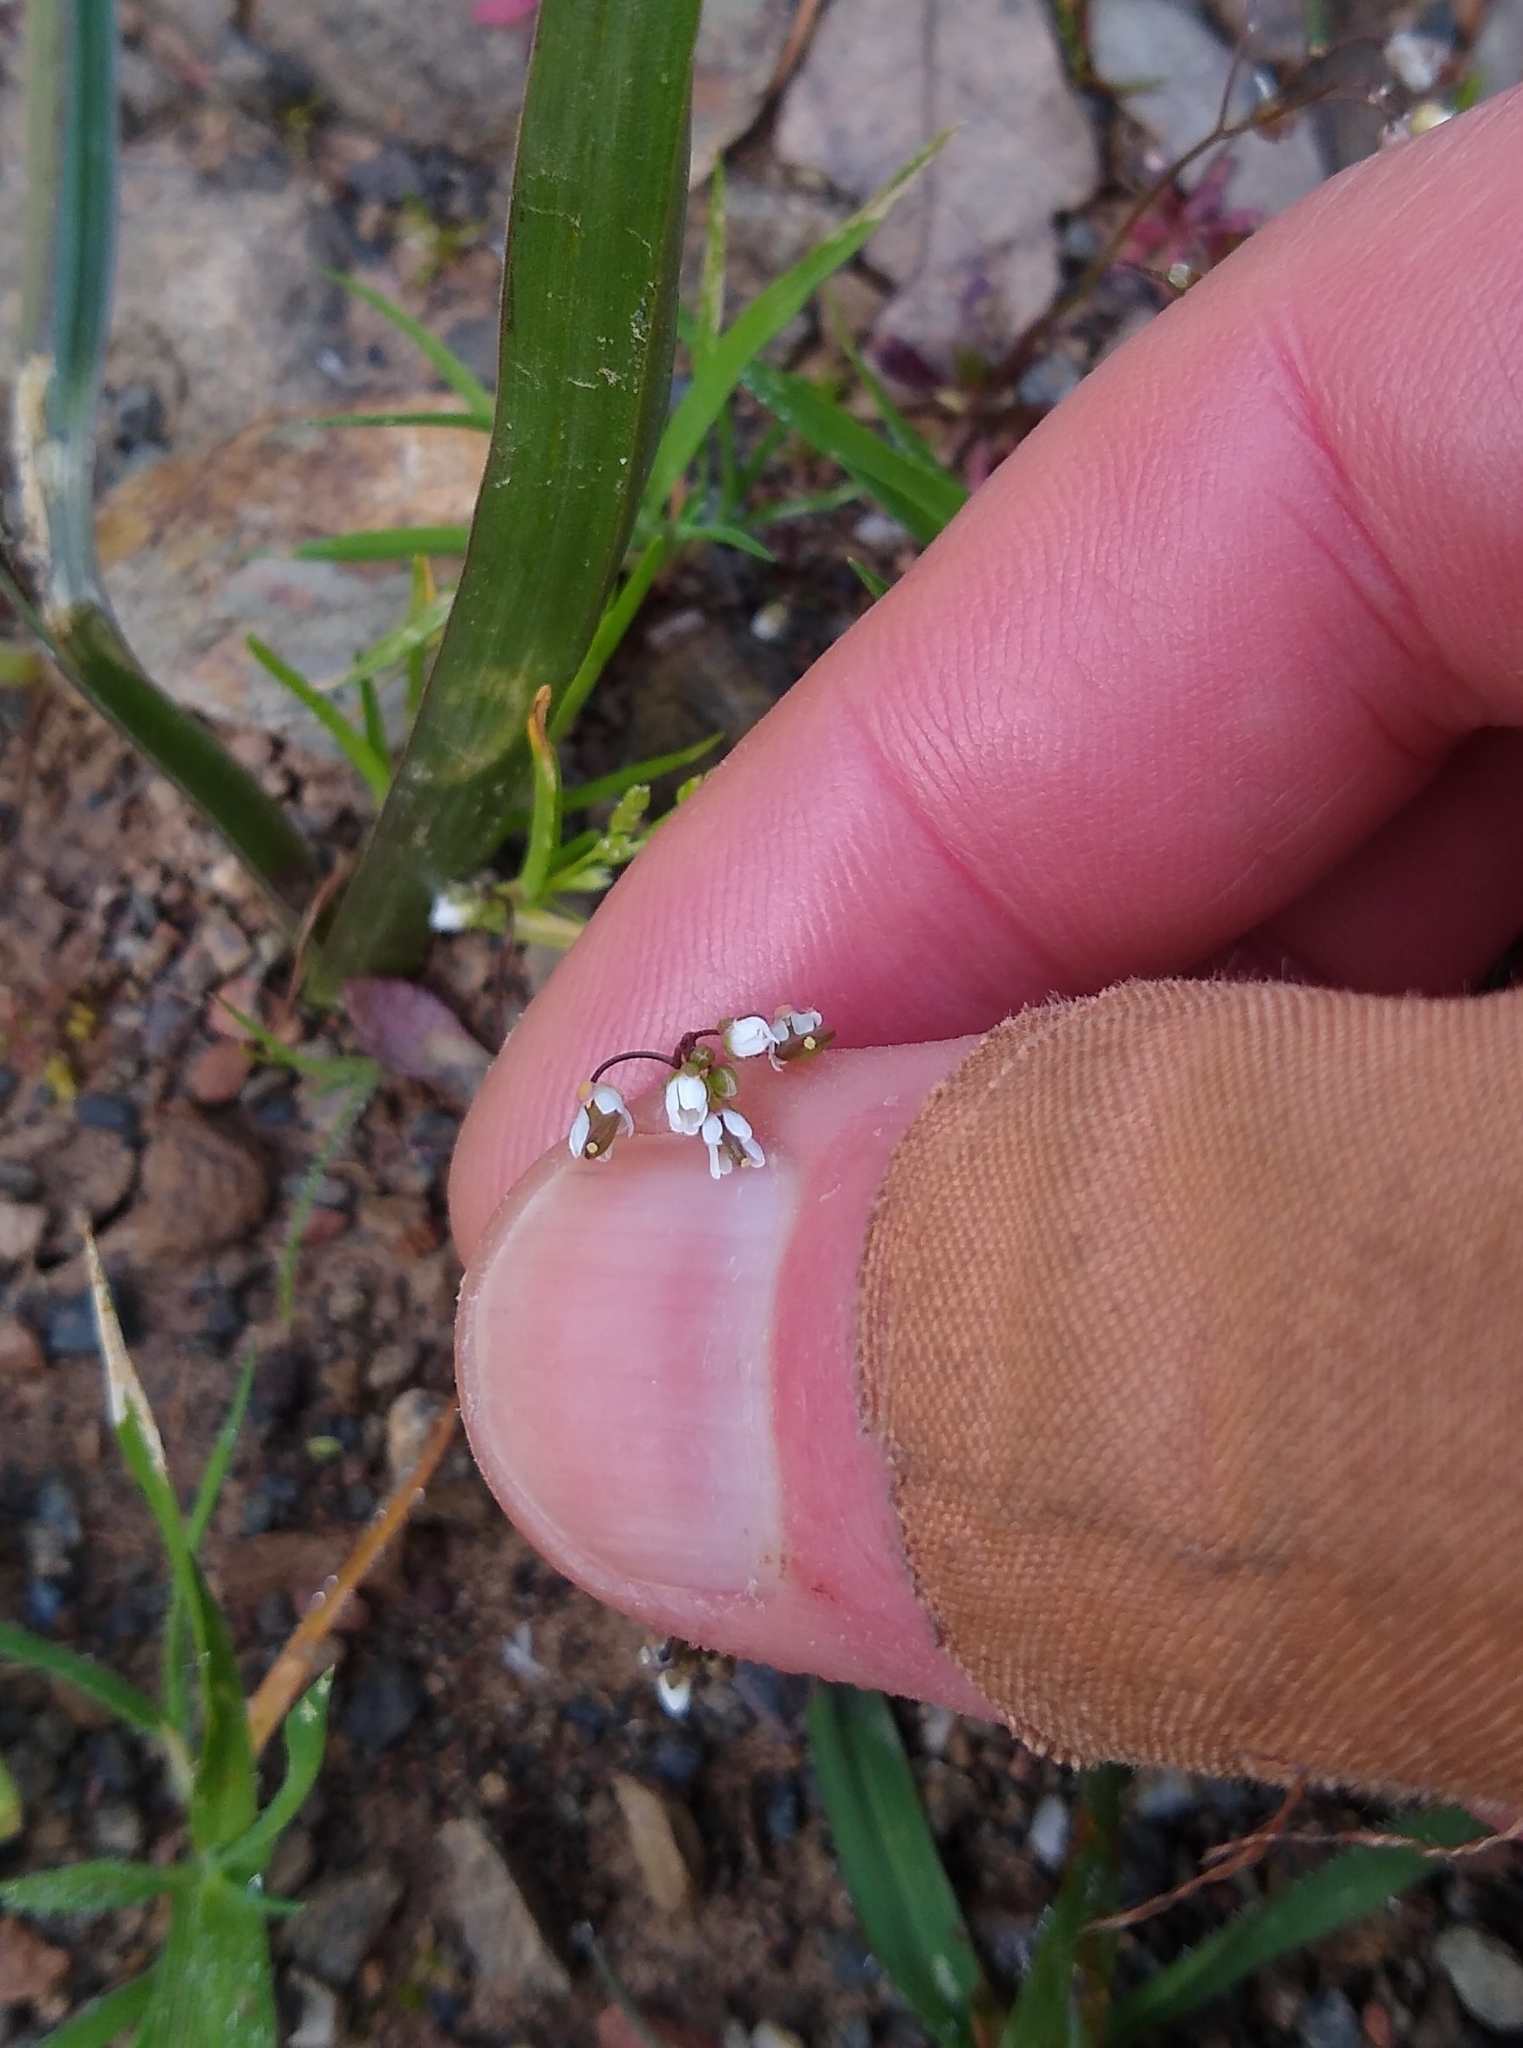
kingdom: Plantae
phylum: Tracheophyta
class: Magnoliopsida
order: Brassicales
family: Brassicaceae
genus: Draba
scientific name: Draba verna
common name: Spring draba
